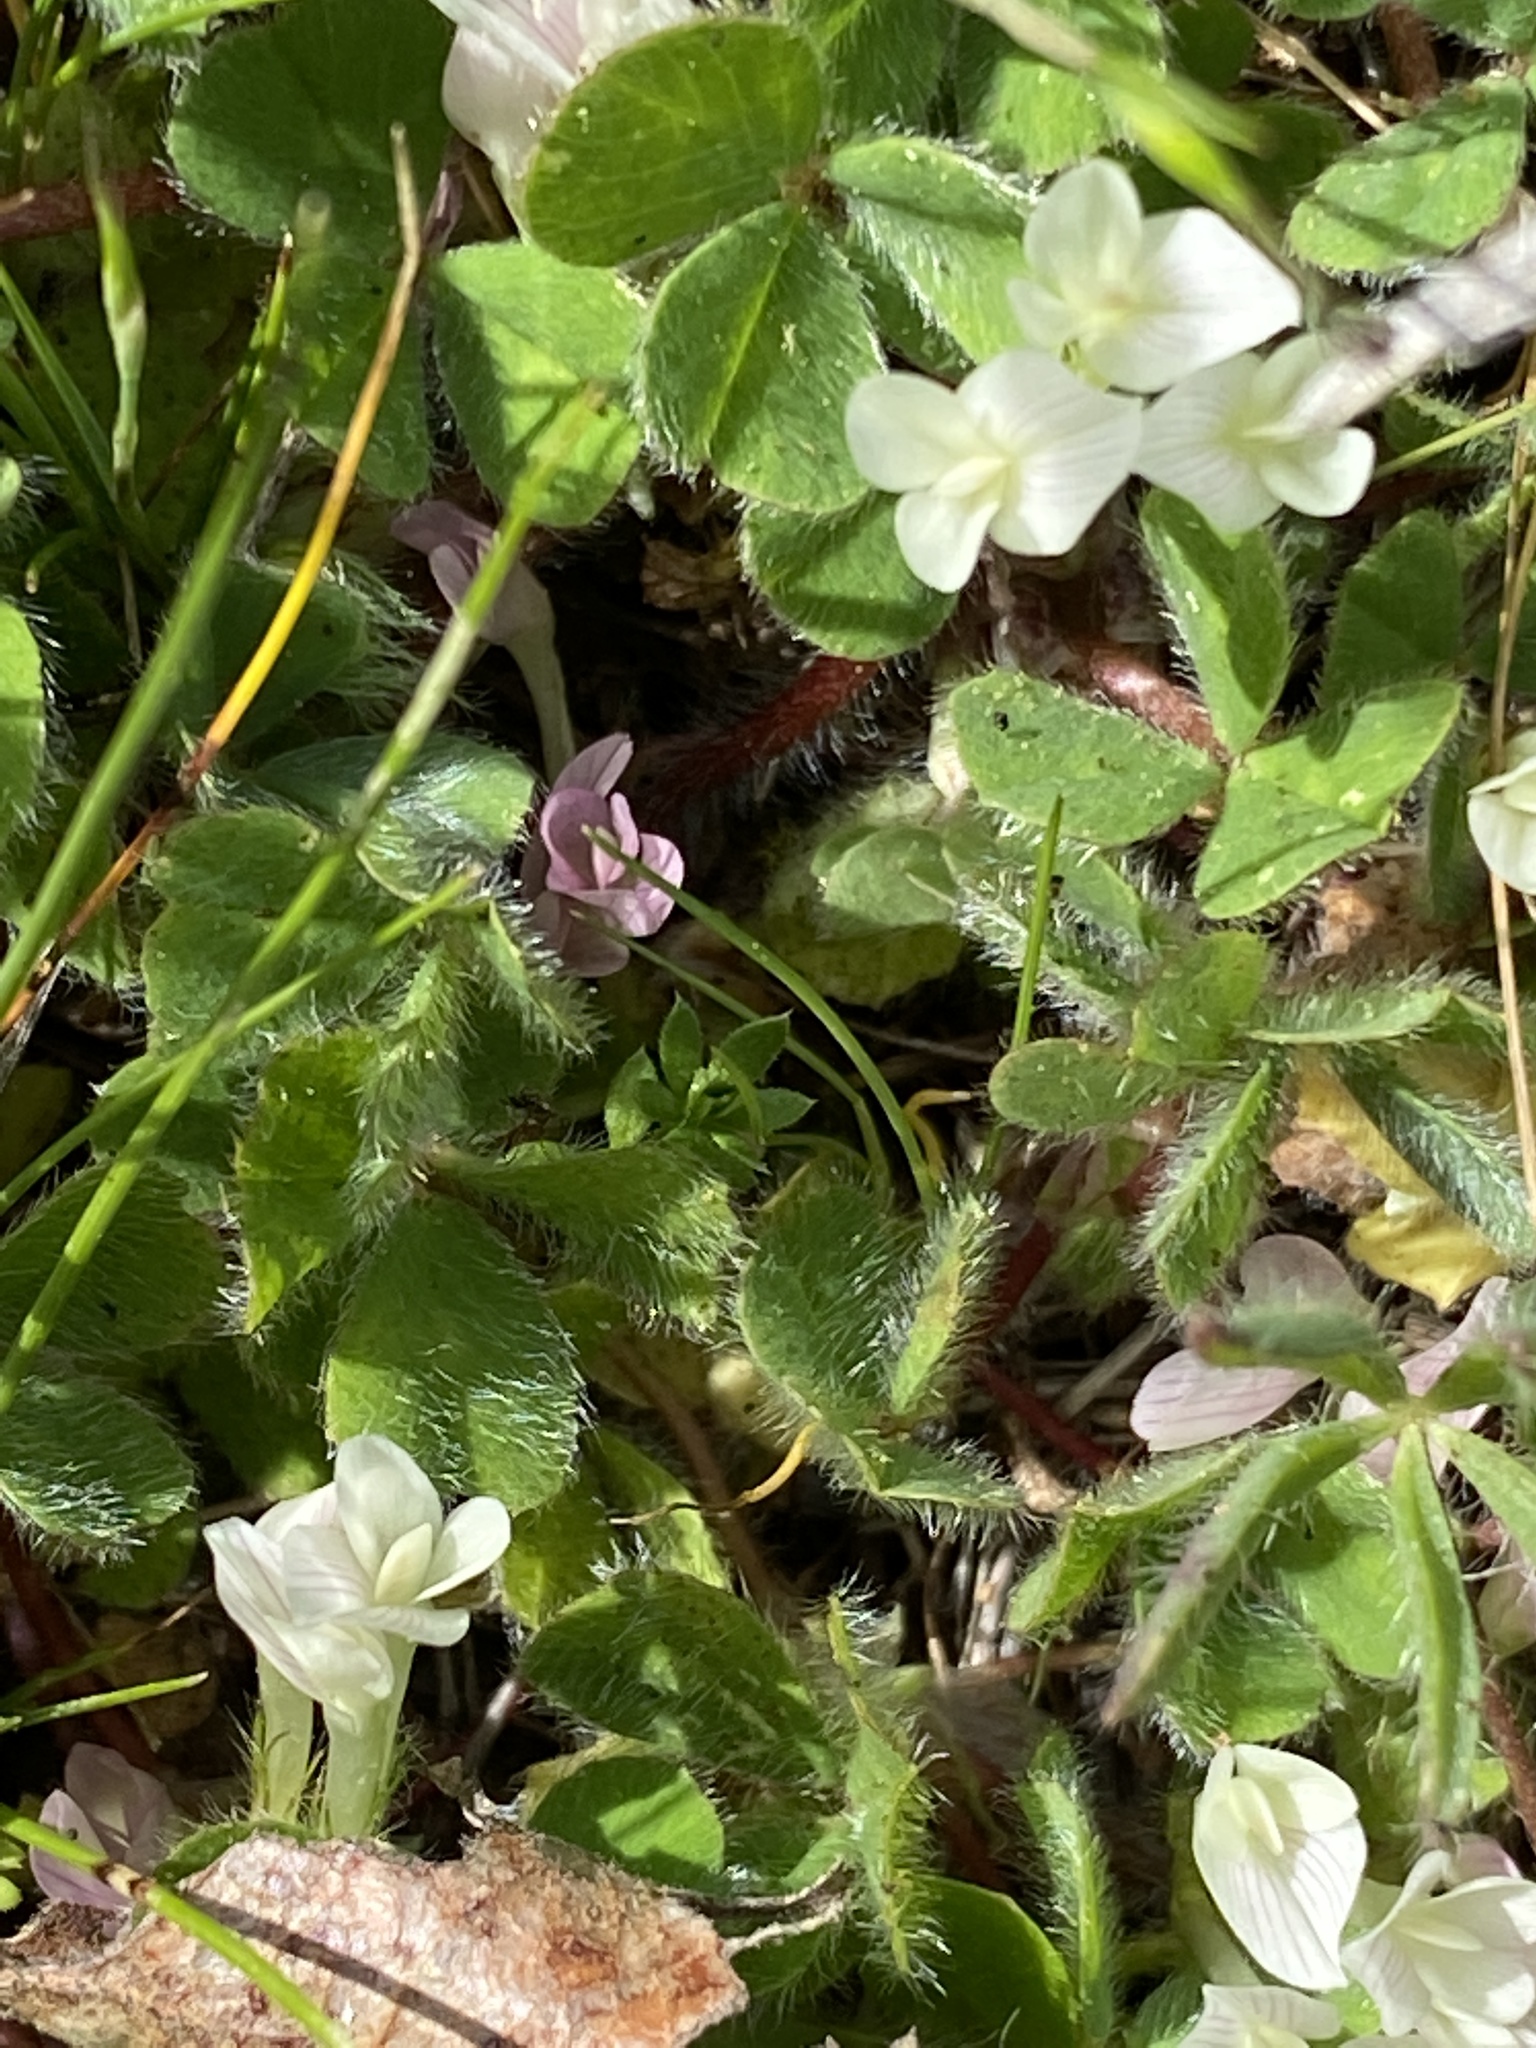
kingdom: Plantae
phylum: Tracheophyta
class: Magnoliopsida
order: Fabales
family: Fabaceae
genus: Trifolium
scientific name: Trifolium subterraneum
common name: Subterranean clover
